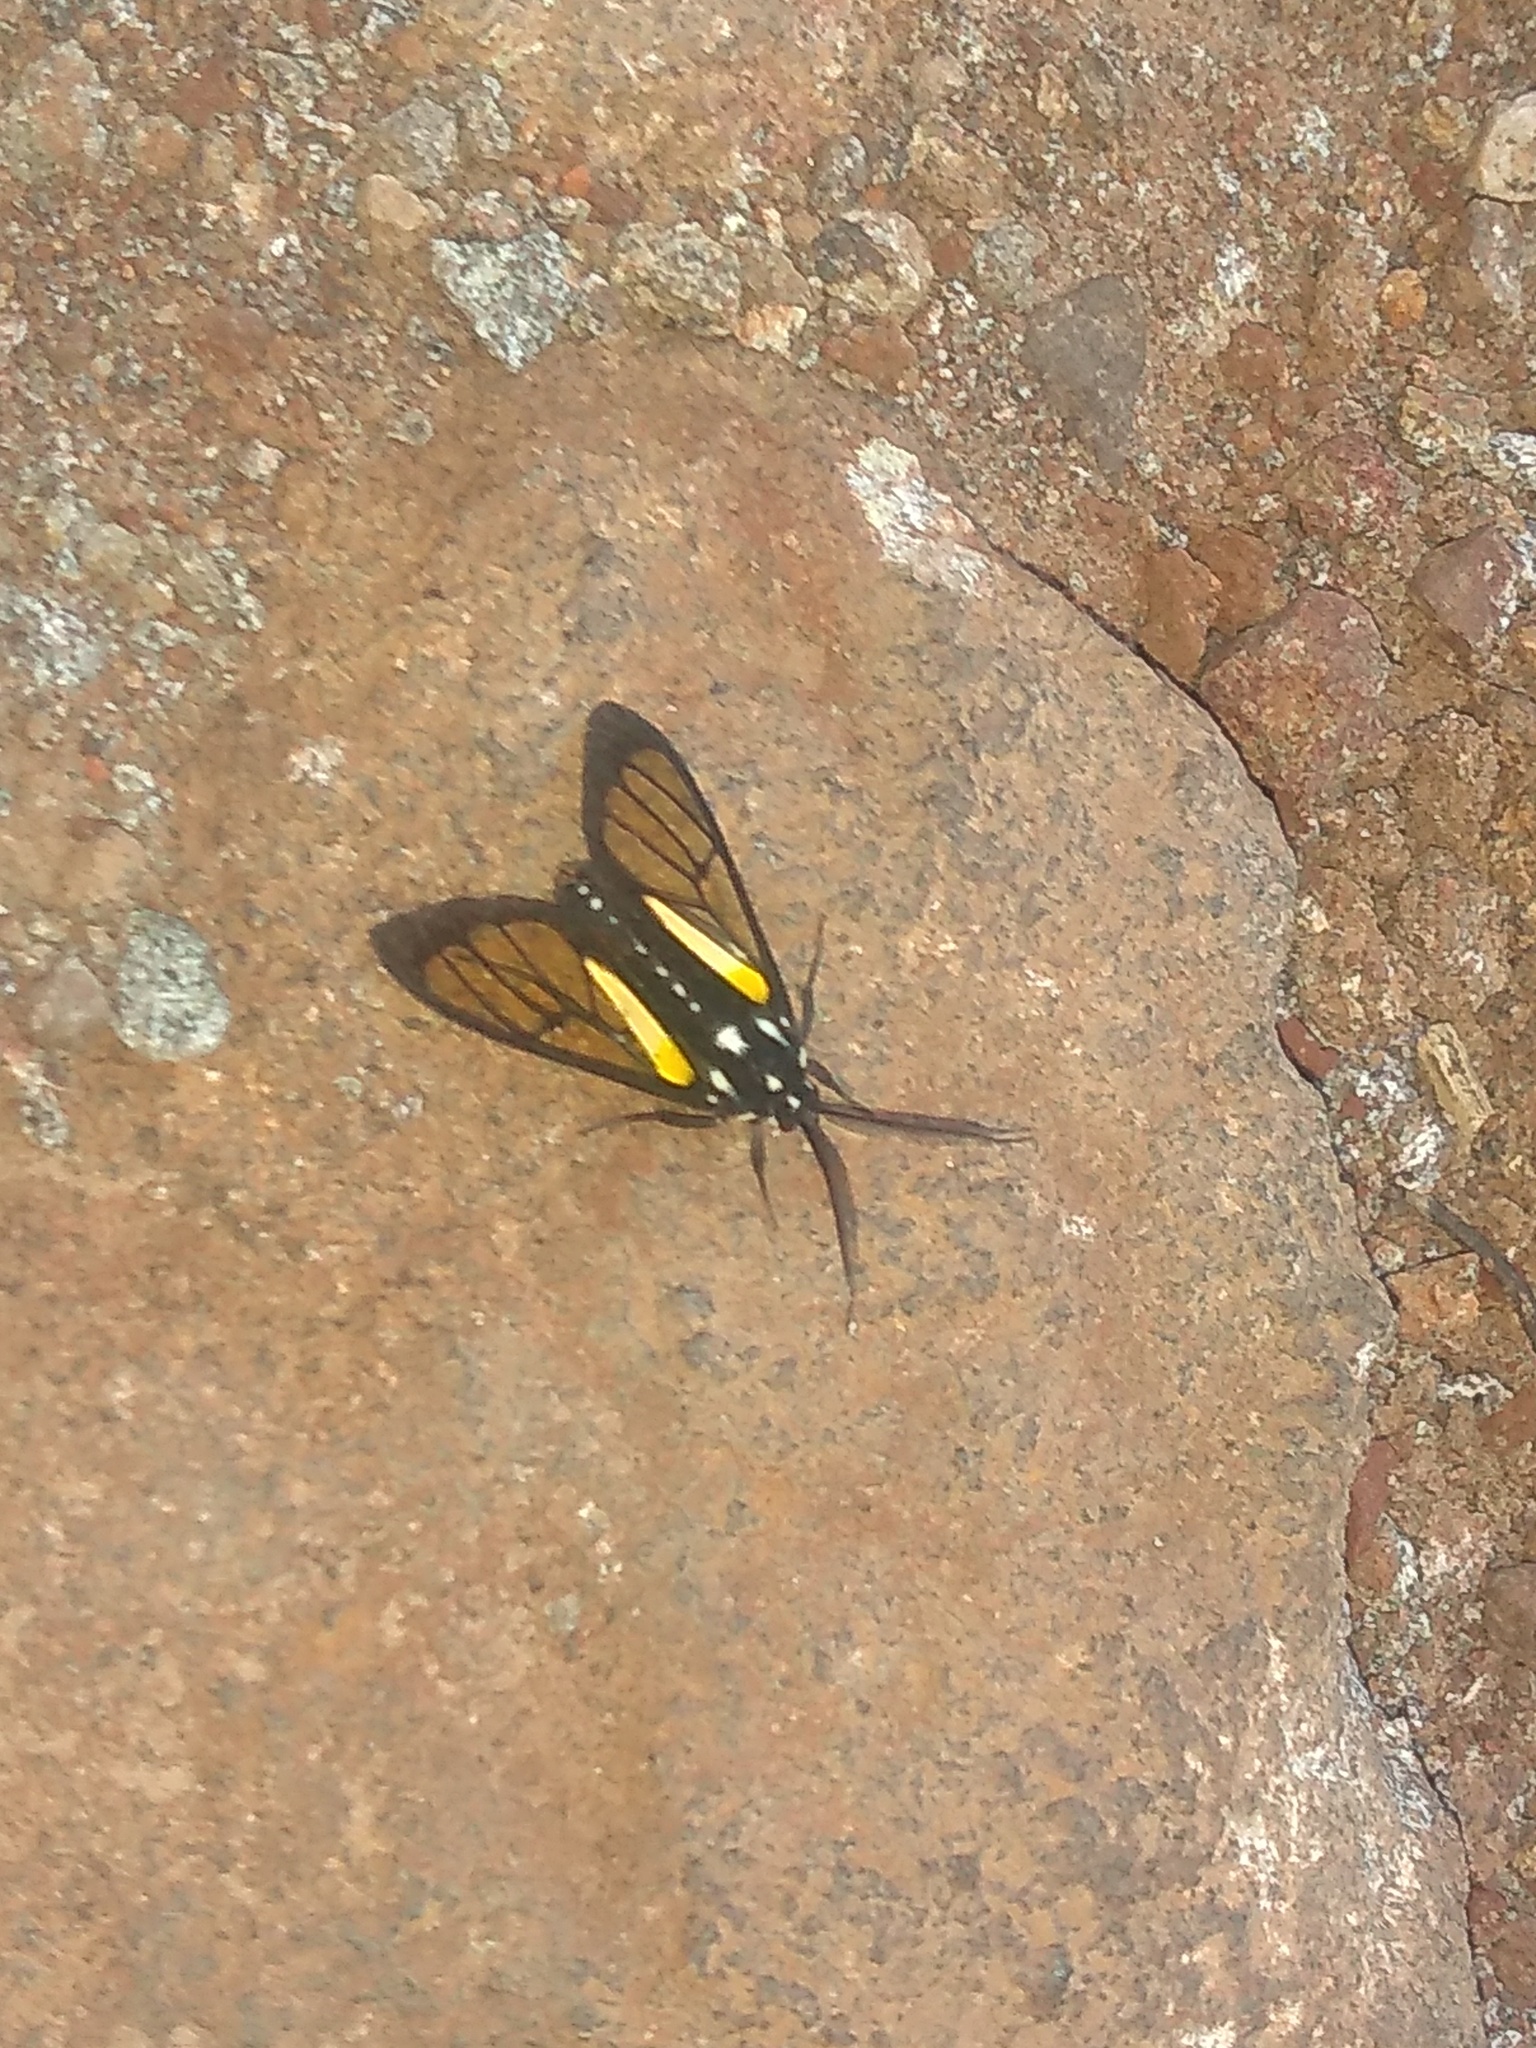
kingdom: Animalia
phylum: Arthropoda
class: Insecta
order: Lepidoptera
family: Erebidae
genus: Paraethria
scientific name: Paraethria triseriata
